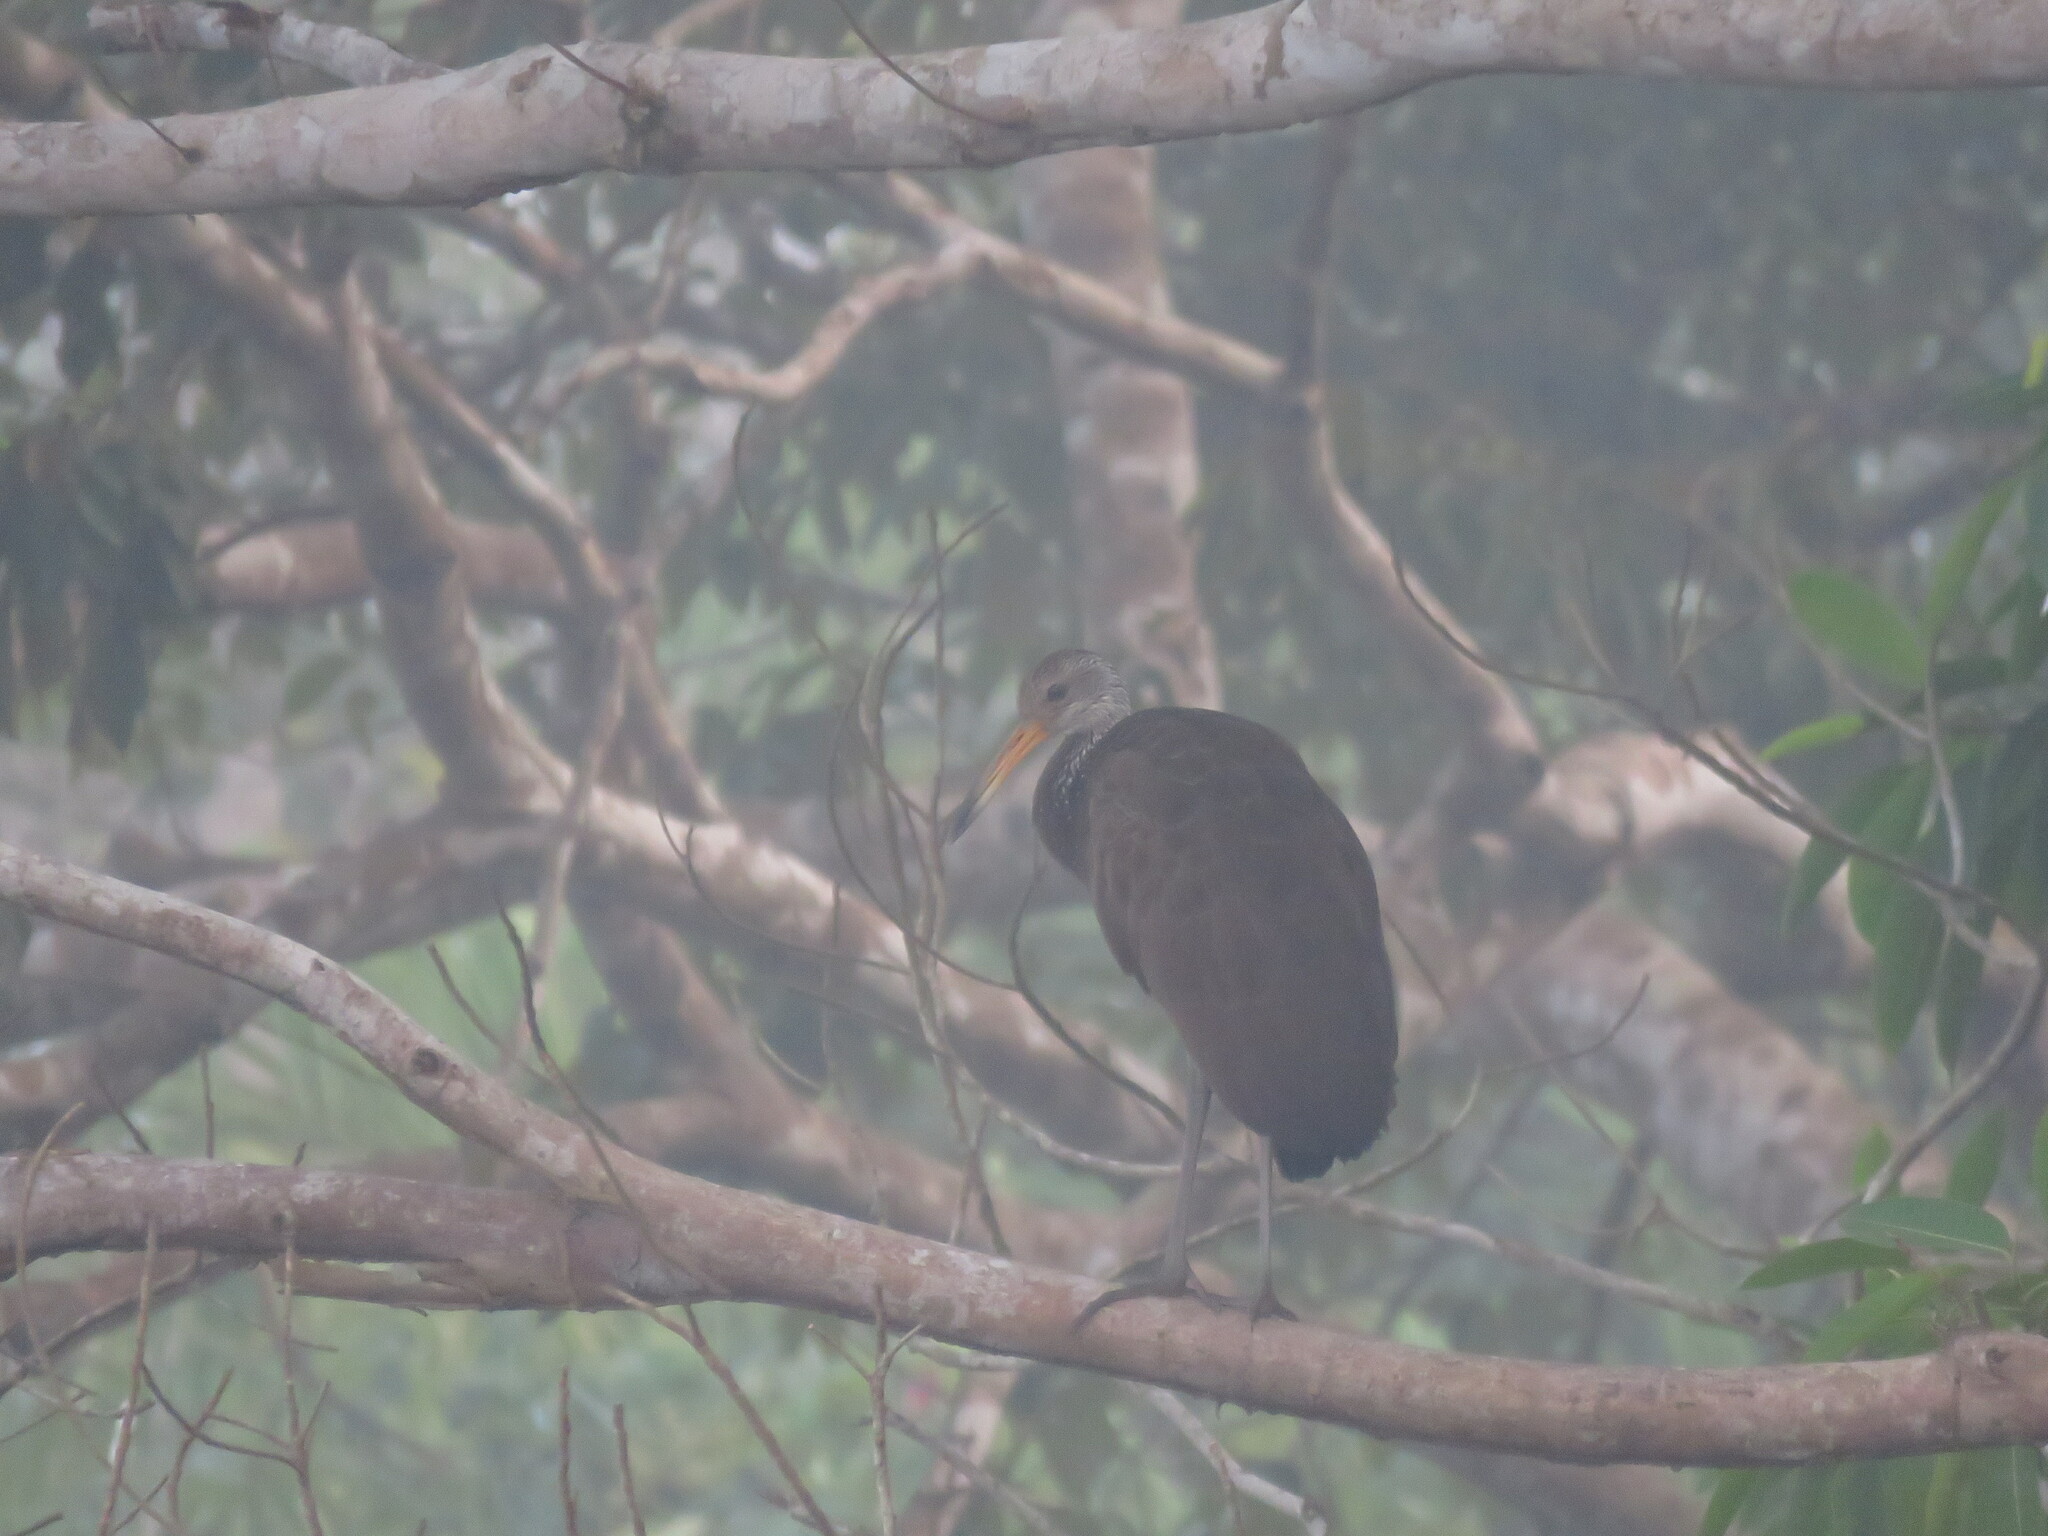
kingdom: Animalia
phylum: Chordata
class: Aves
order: Gruiformes
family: Aramidae
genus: Aramus
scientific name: Aramus guarauna
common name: Limpkin
